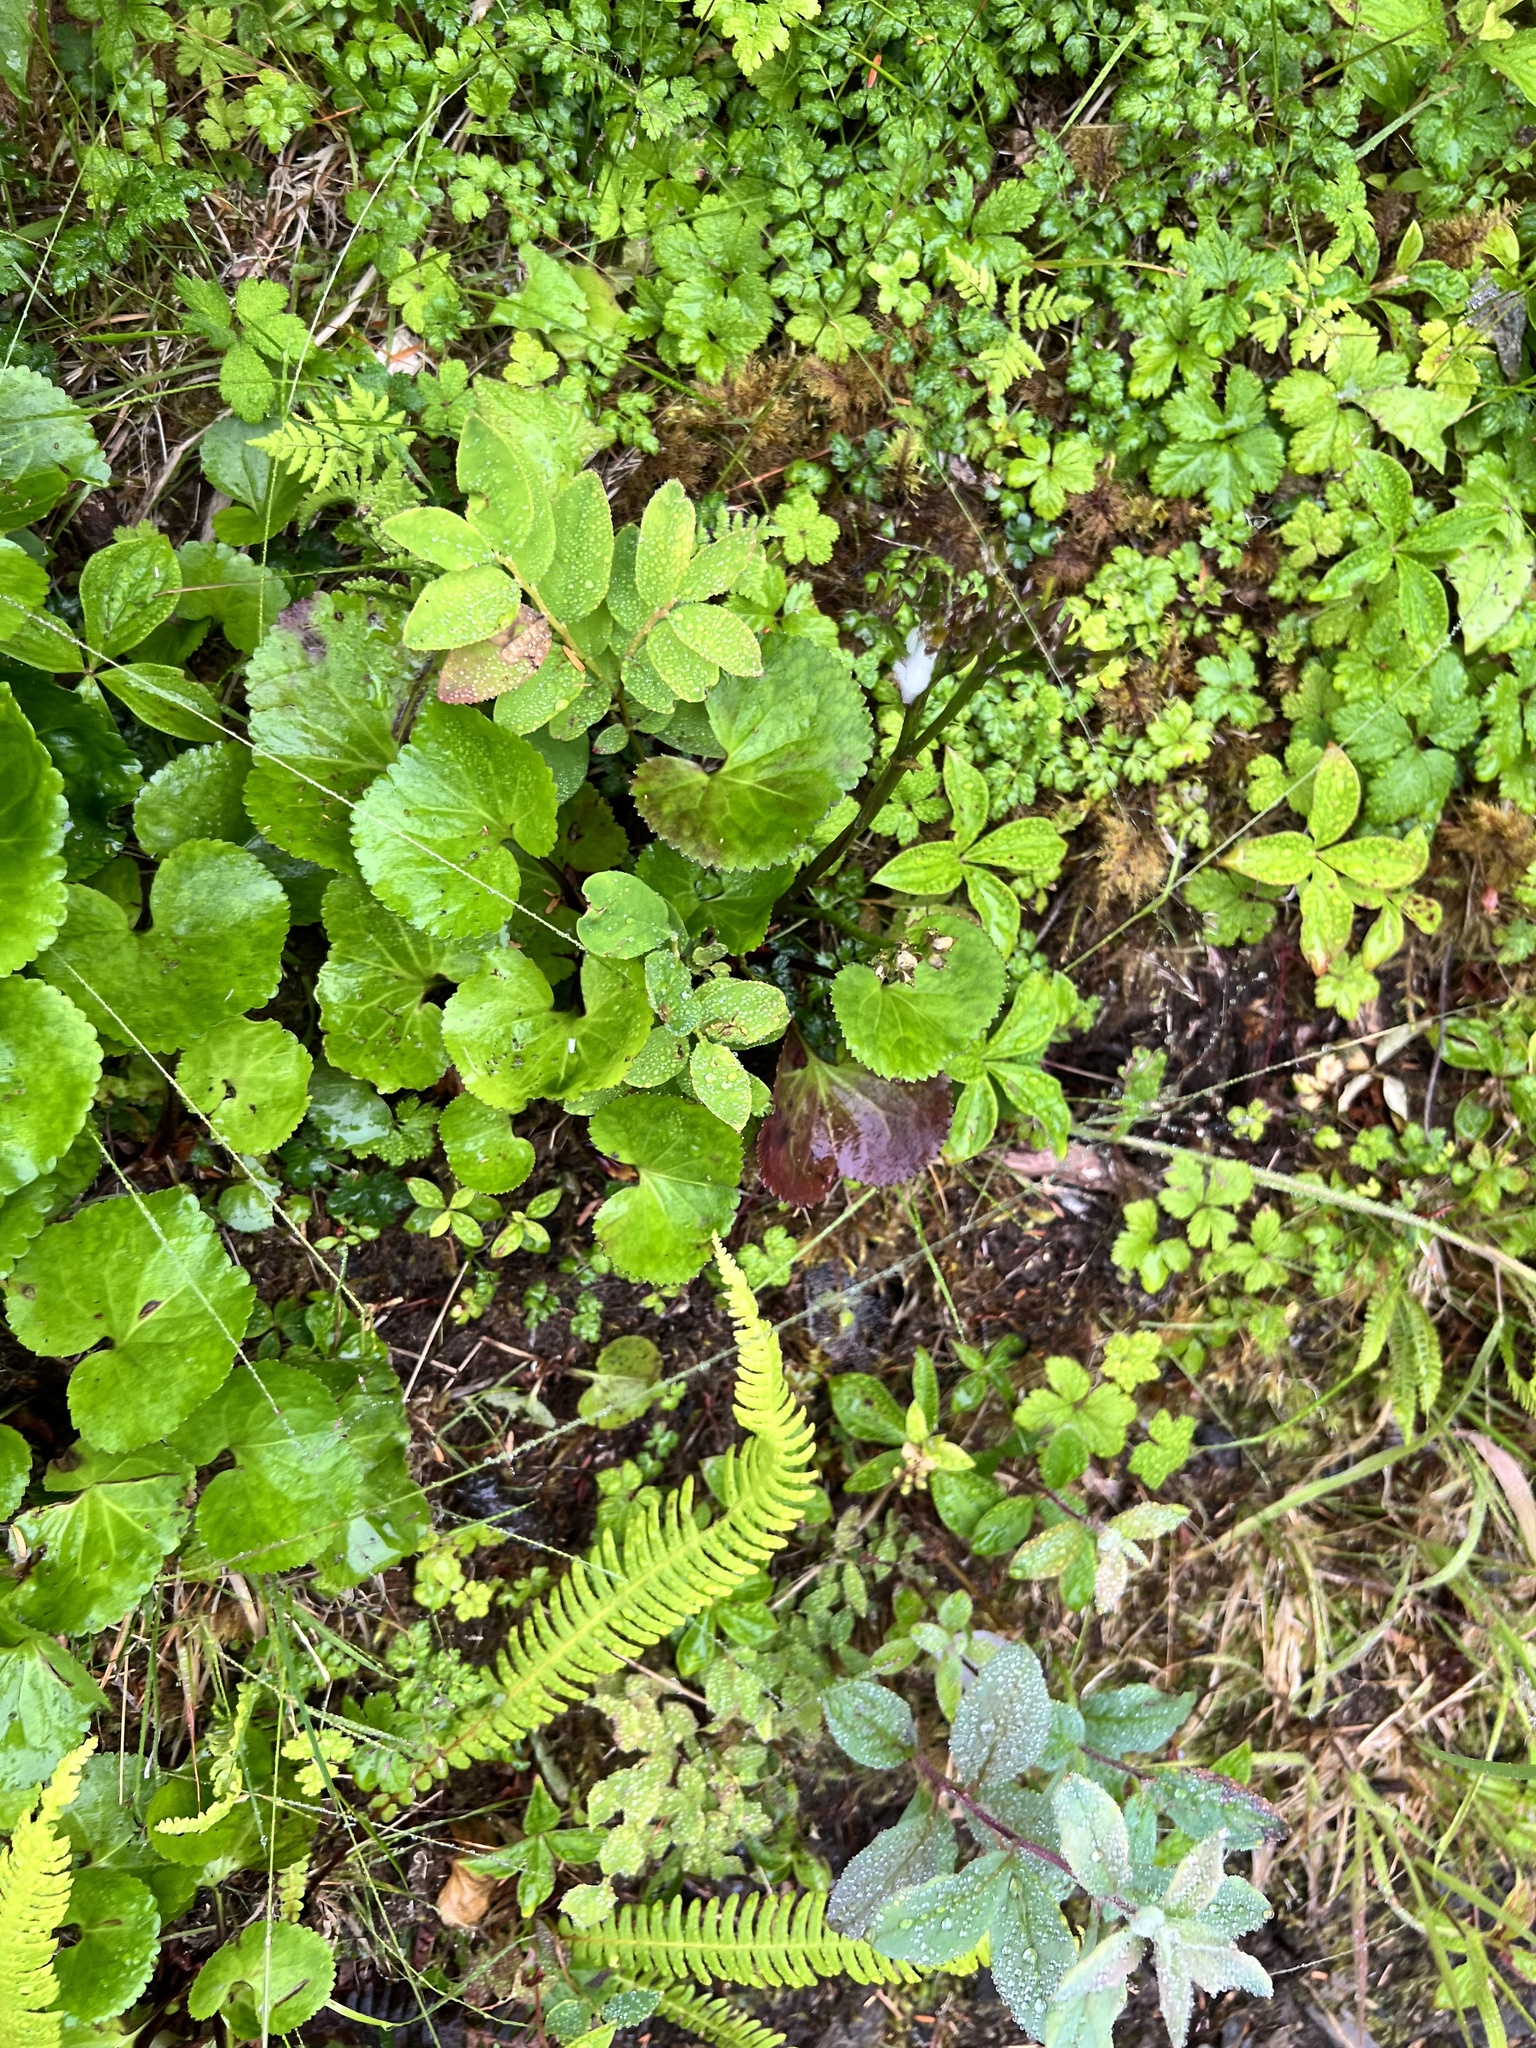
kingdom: Plantae
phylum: Tracheophyta
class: Magnoliopsida
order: Asterales
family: Menyanthaceae
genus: Nephrophyllidium
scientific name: Nephrophyllidium crista-galli
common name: Deer-cabbage
